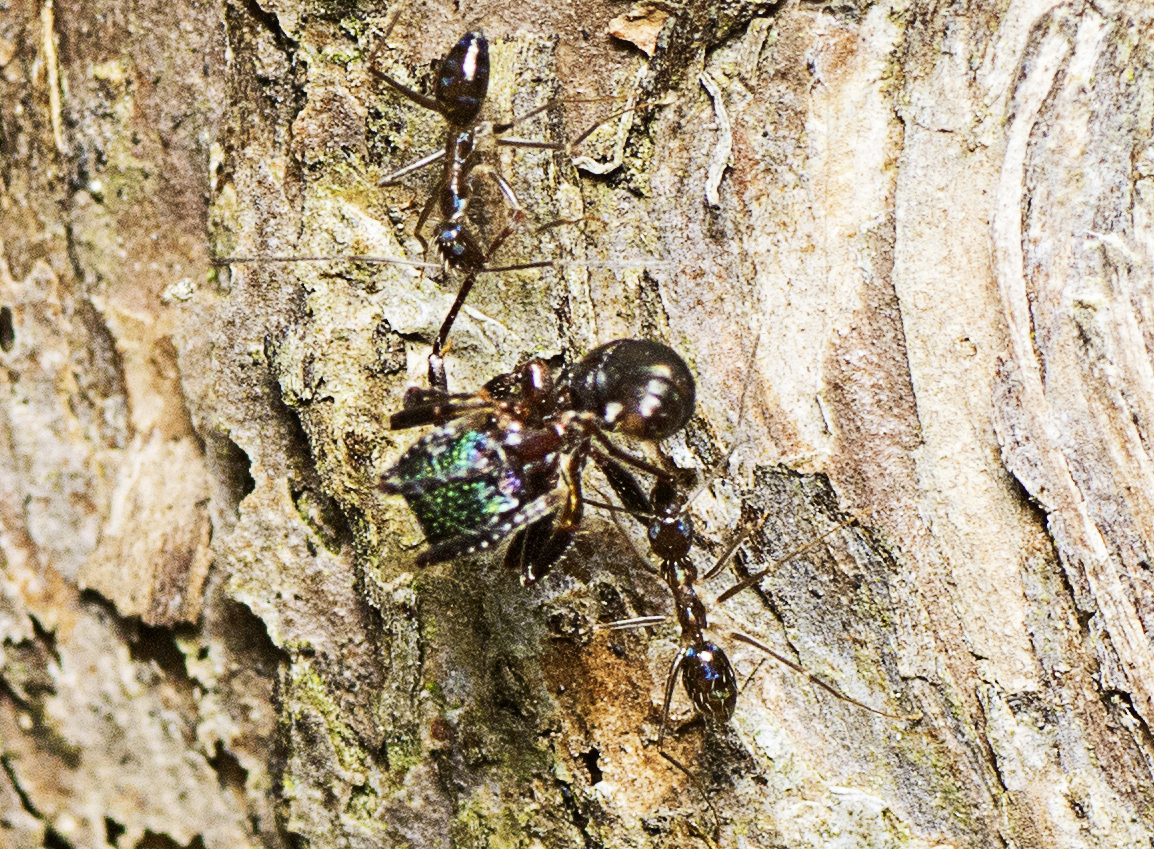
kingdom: Animalia
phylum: Arthropoda
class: Insecta
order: Hymenoptera
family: Formicidae
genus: Paratrechina
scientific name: Paratrechina longicornis
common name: Longhorned crazy ant
